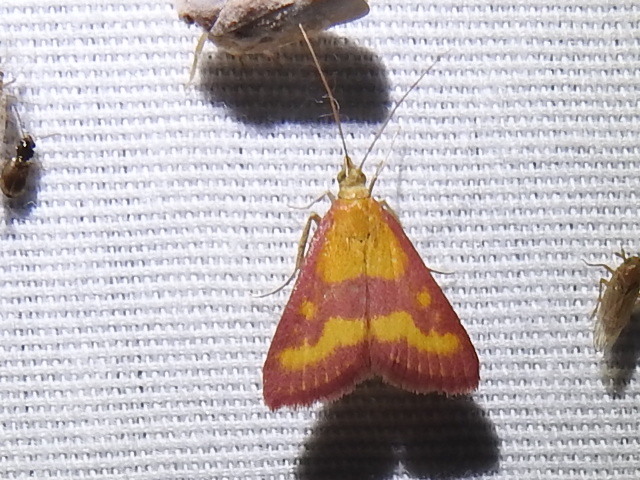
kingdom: Animalia
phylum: Arthropoda
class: Insecta
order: Lepidoptera
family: Crambidae
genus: Pyrausta
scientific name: Pyrausta laticlavia
